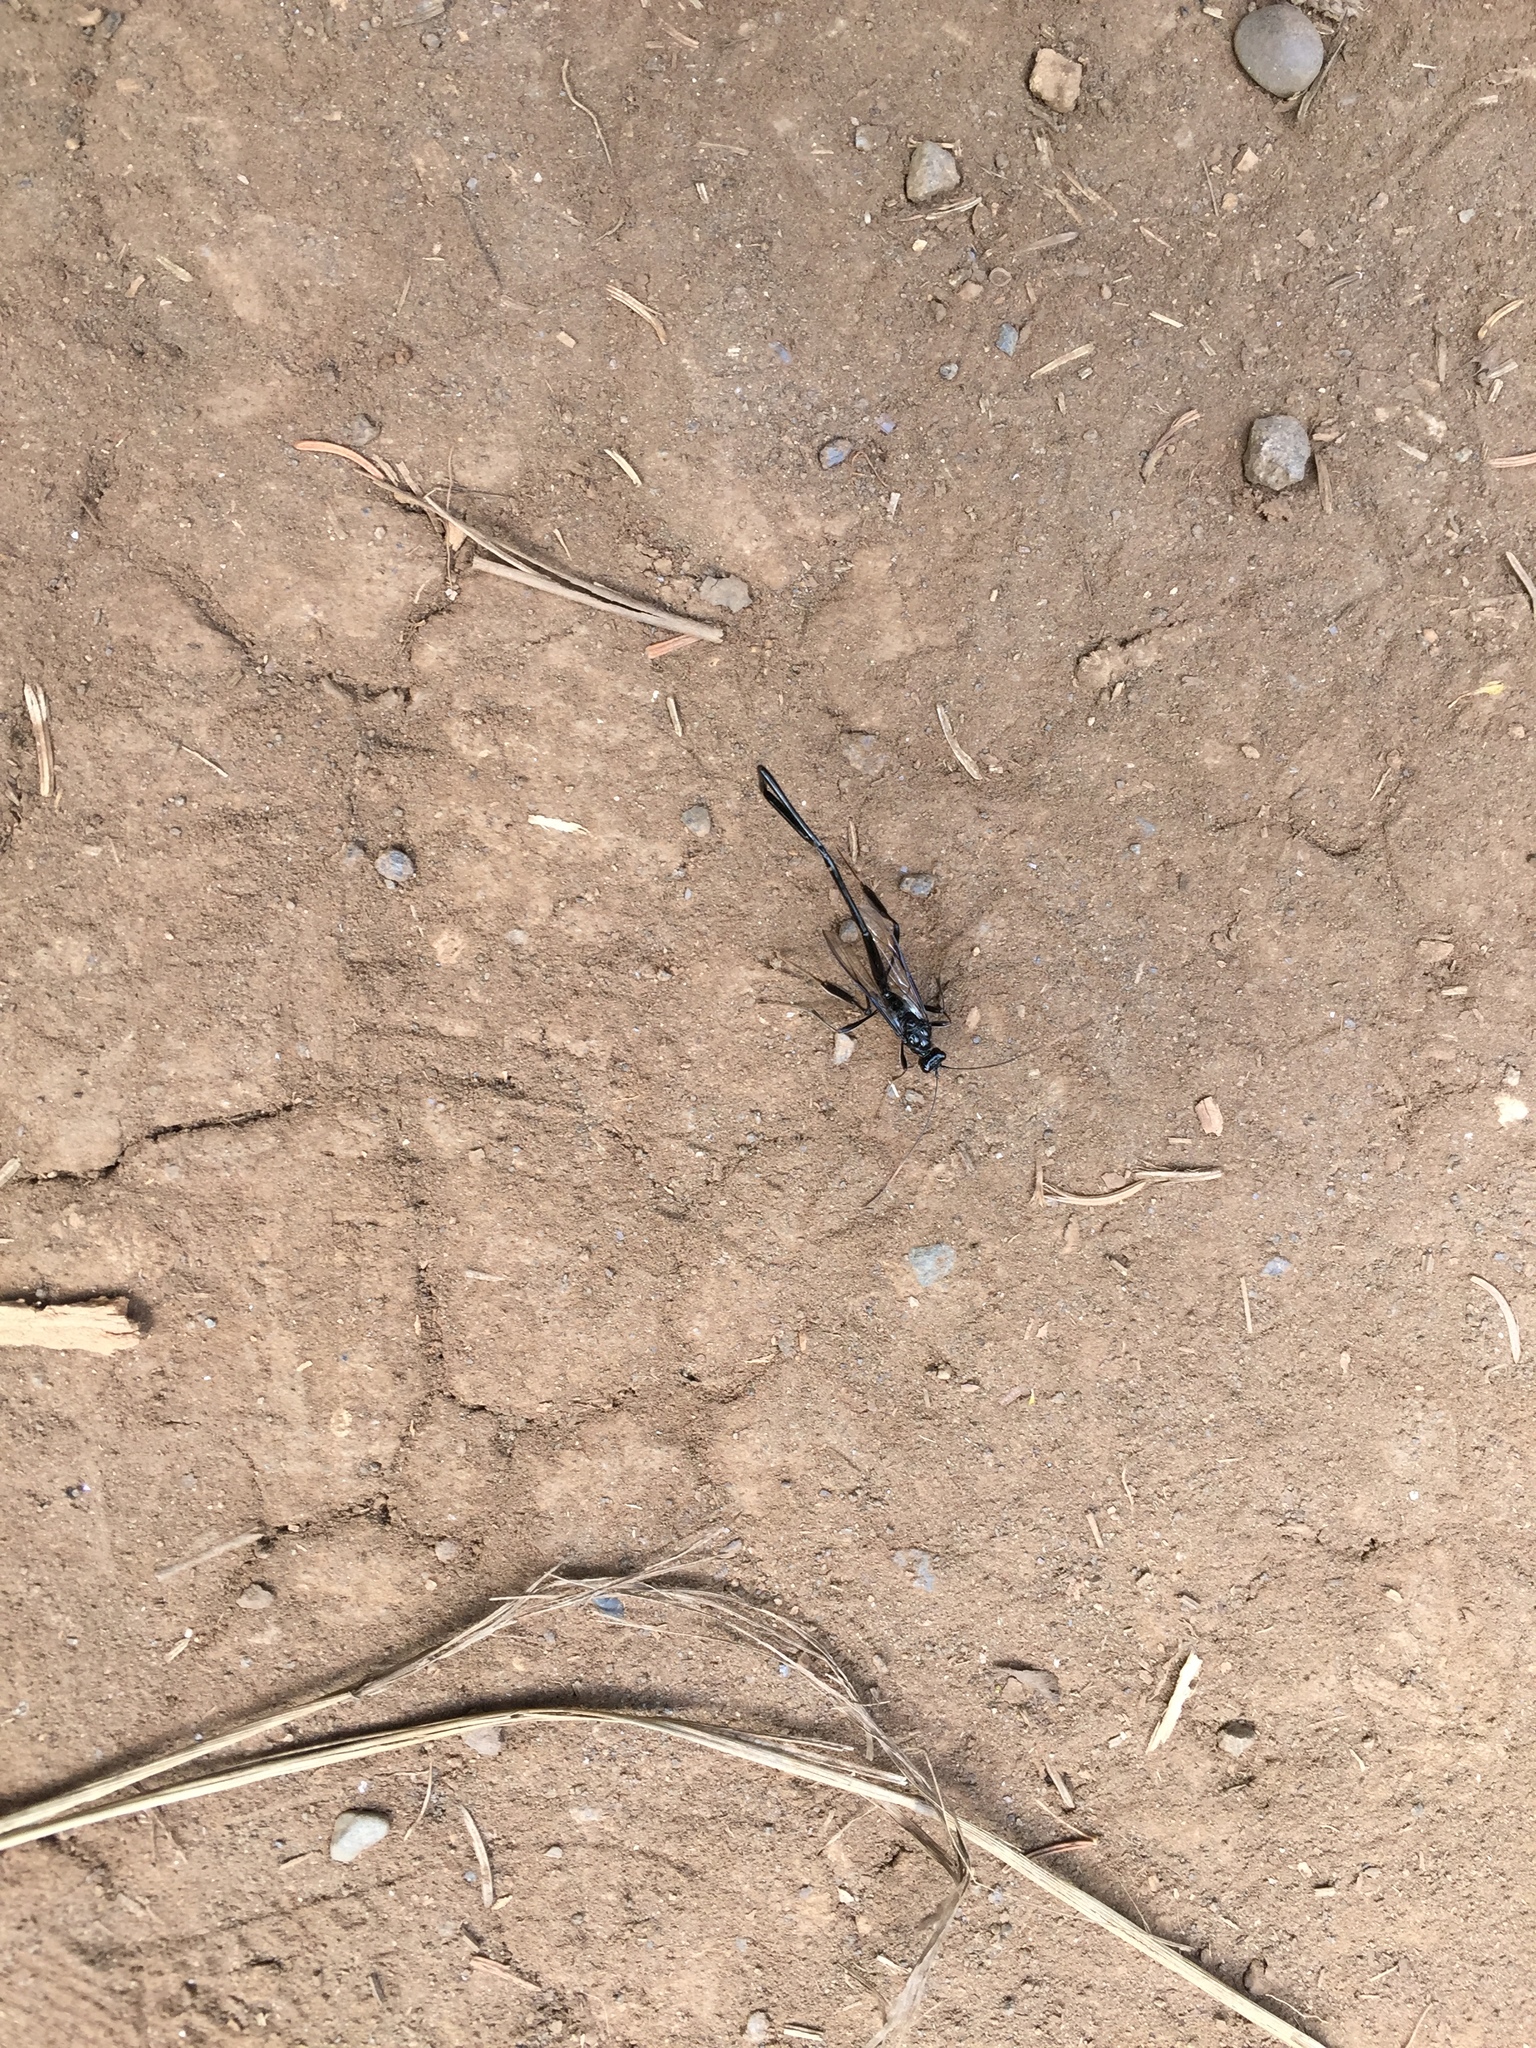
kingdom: Animalia
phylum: Arthropoda
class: Insecta
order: Hymenoptera
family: Pelecinidae
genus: Pelecinus
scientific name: Pelecinus polyturator
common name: American pelecinid wasp
